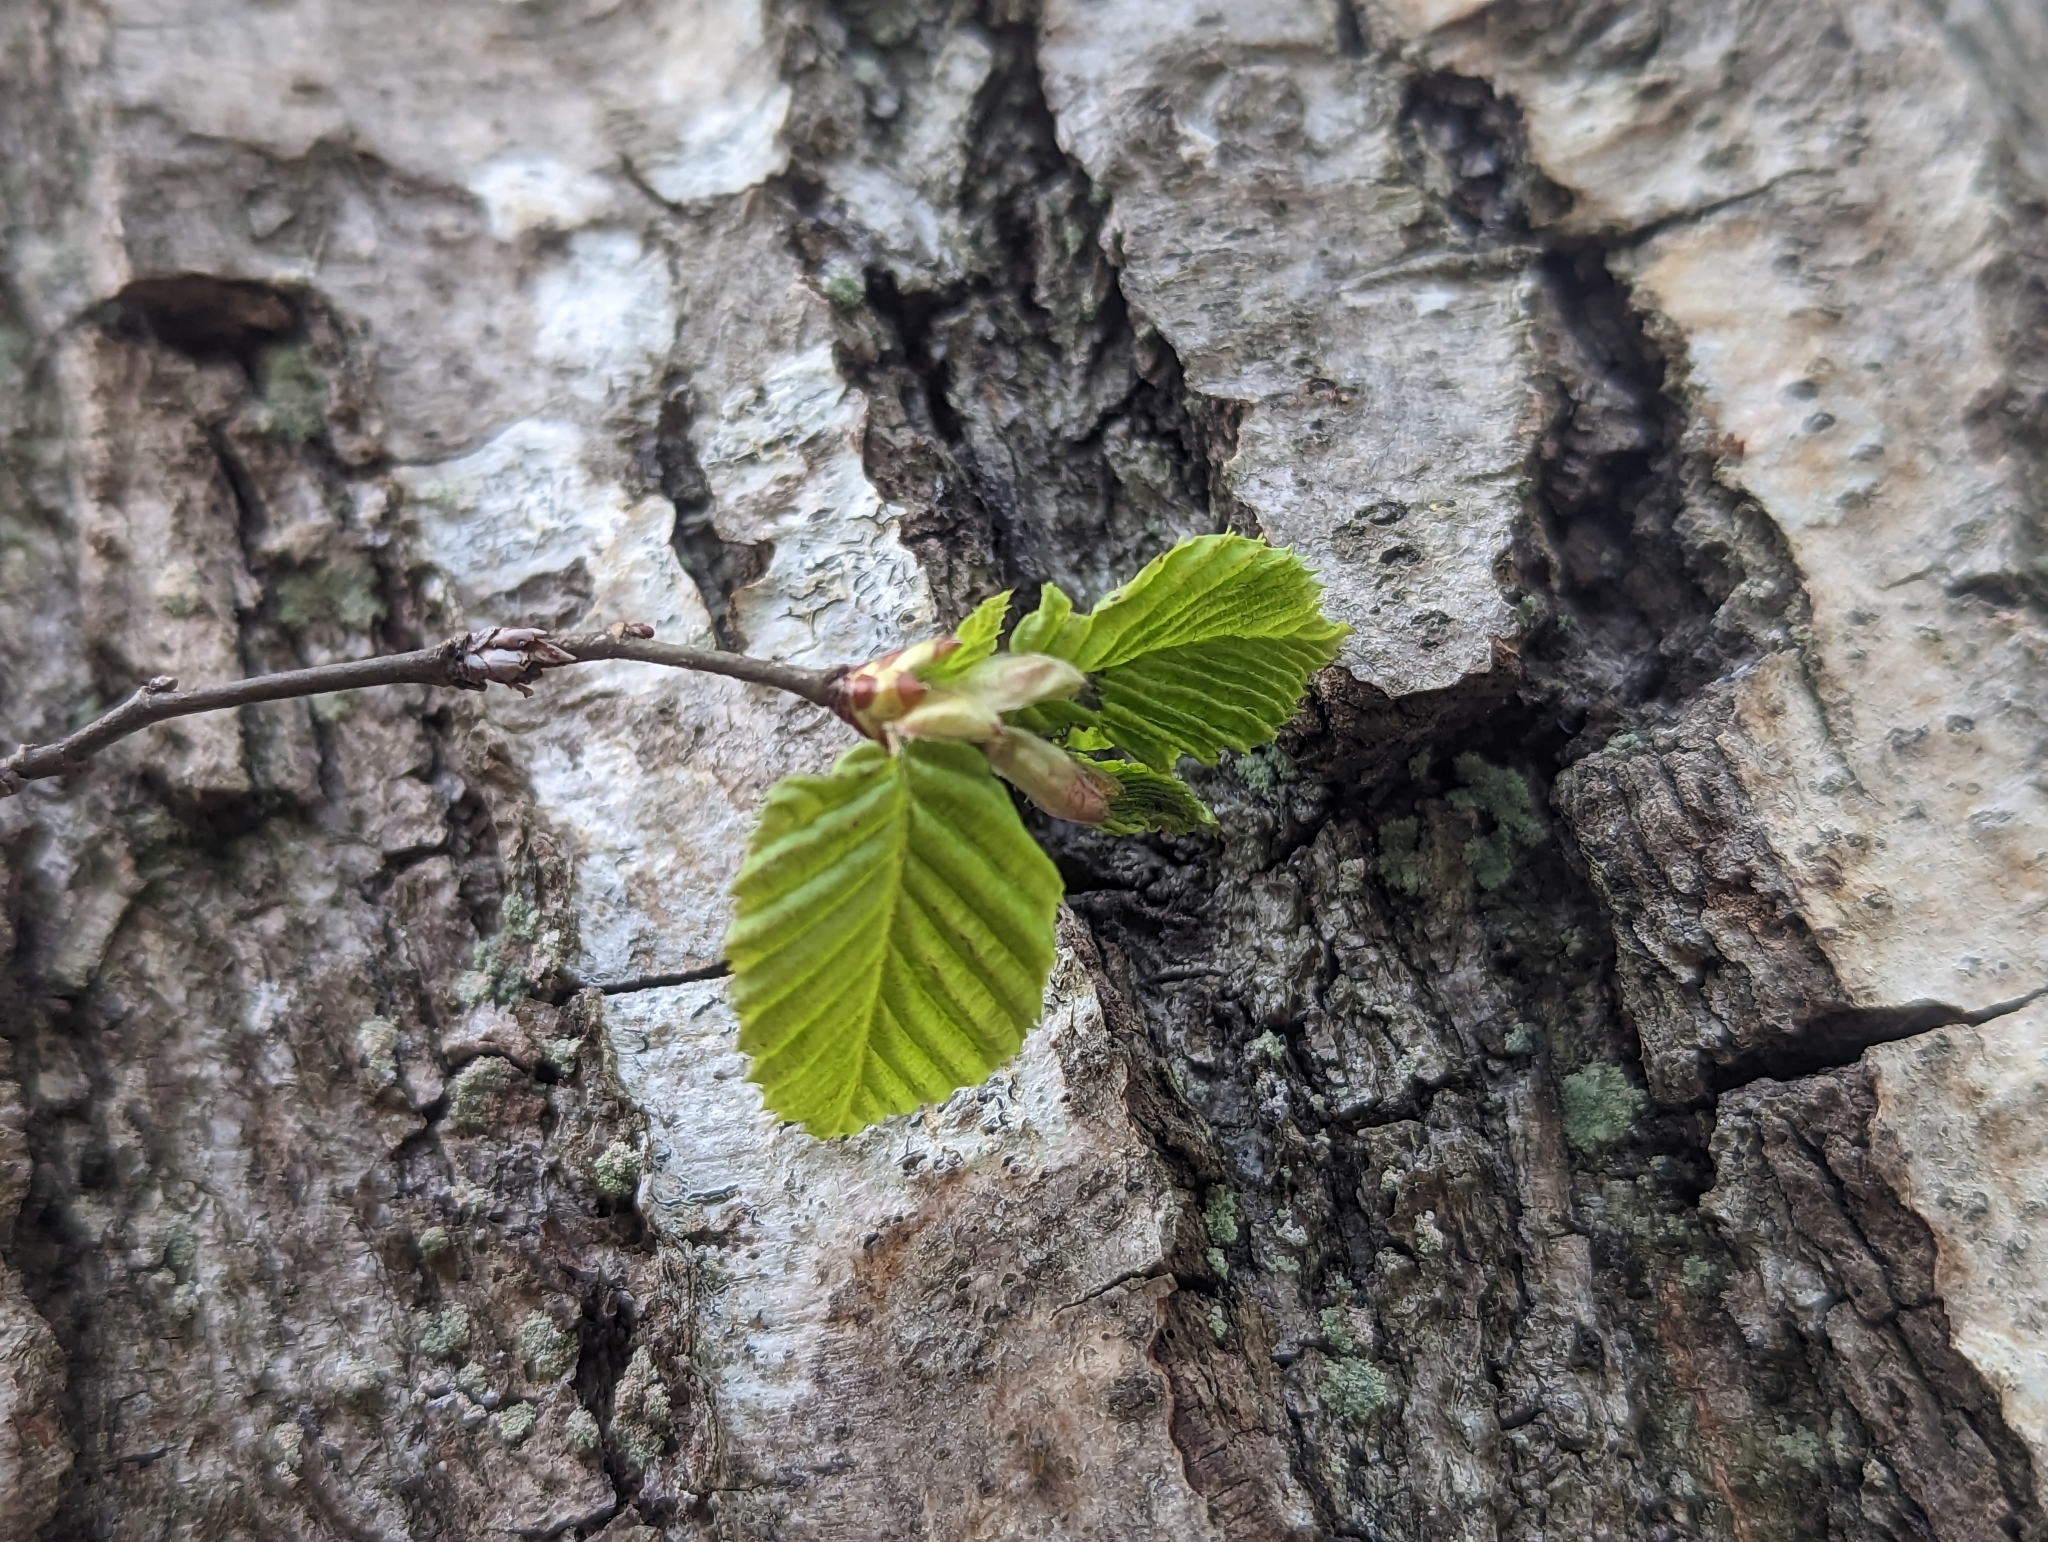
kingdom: Plantae
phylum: Tracheophyta
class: Magnoliopsida
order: Fagales
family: Betulaceae
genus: Carpinus
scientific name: Carpinus betulus
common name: Hornbeam
